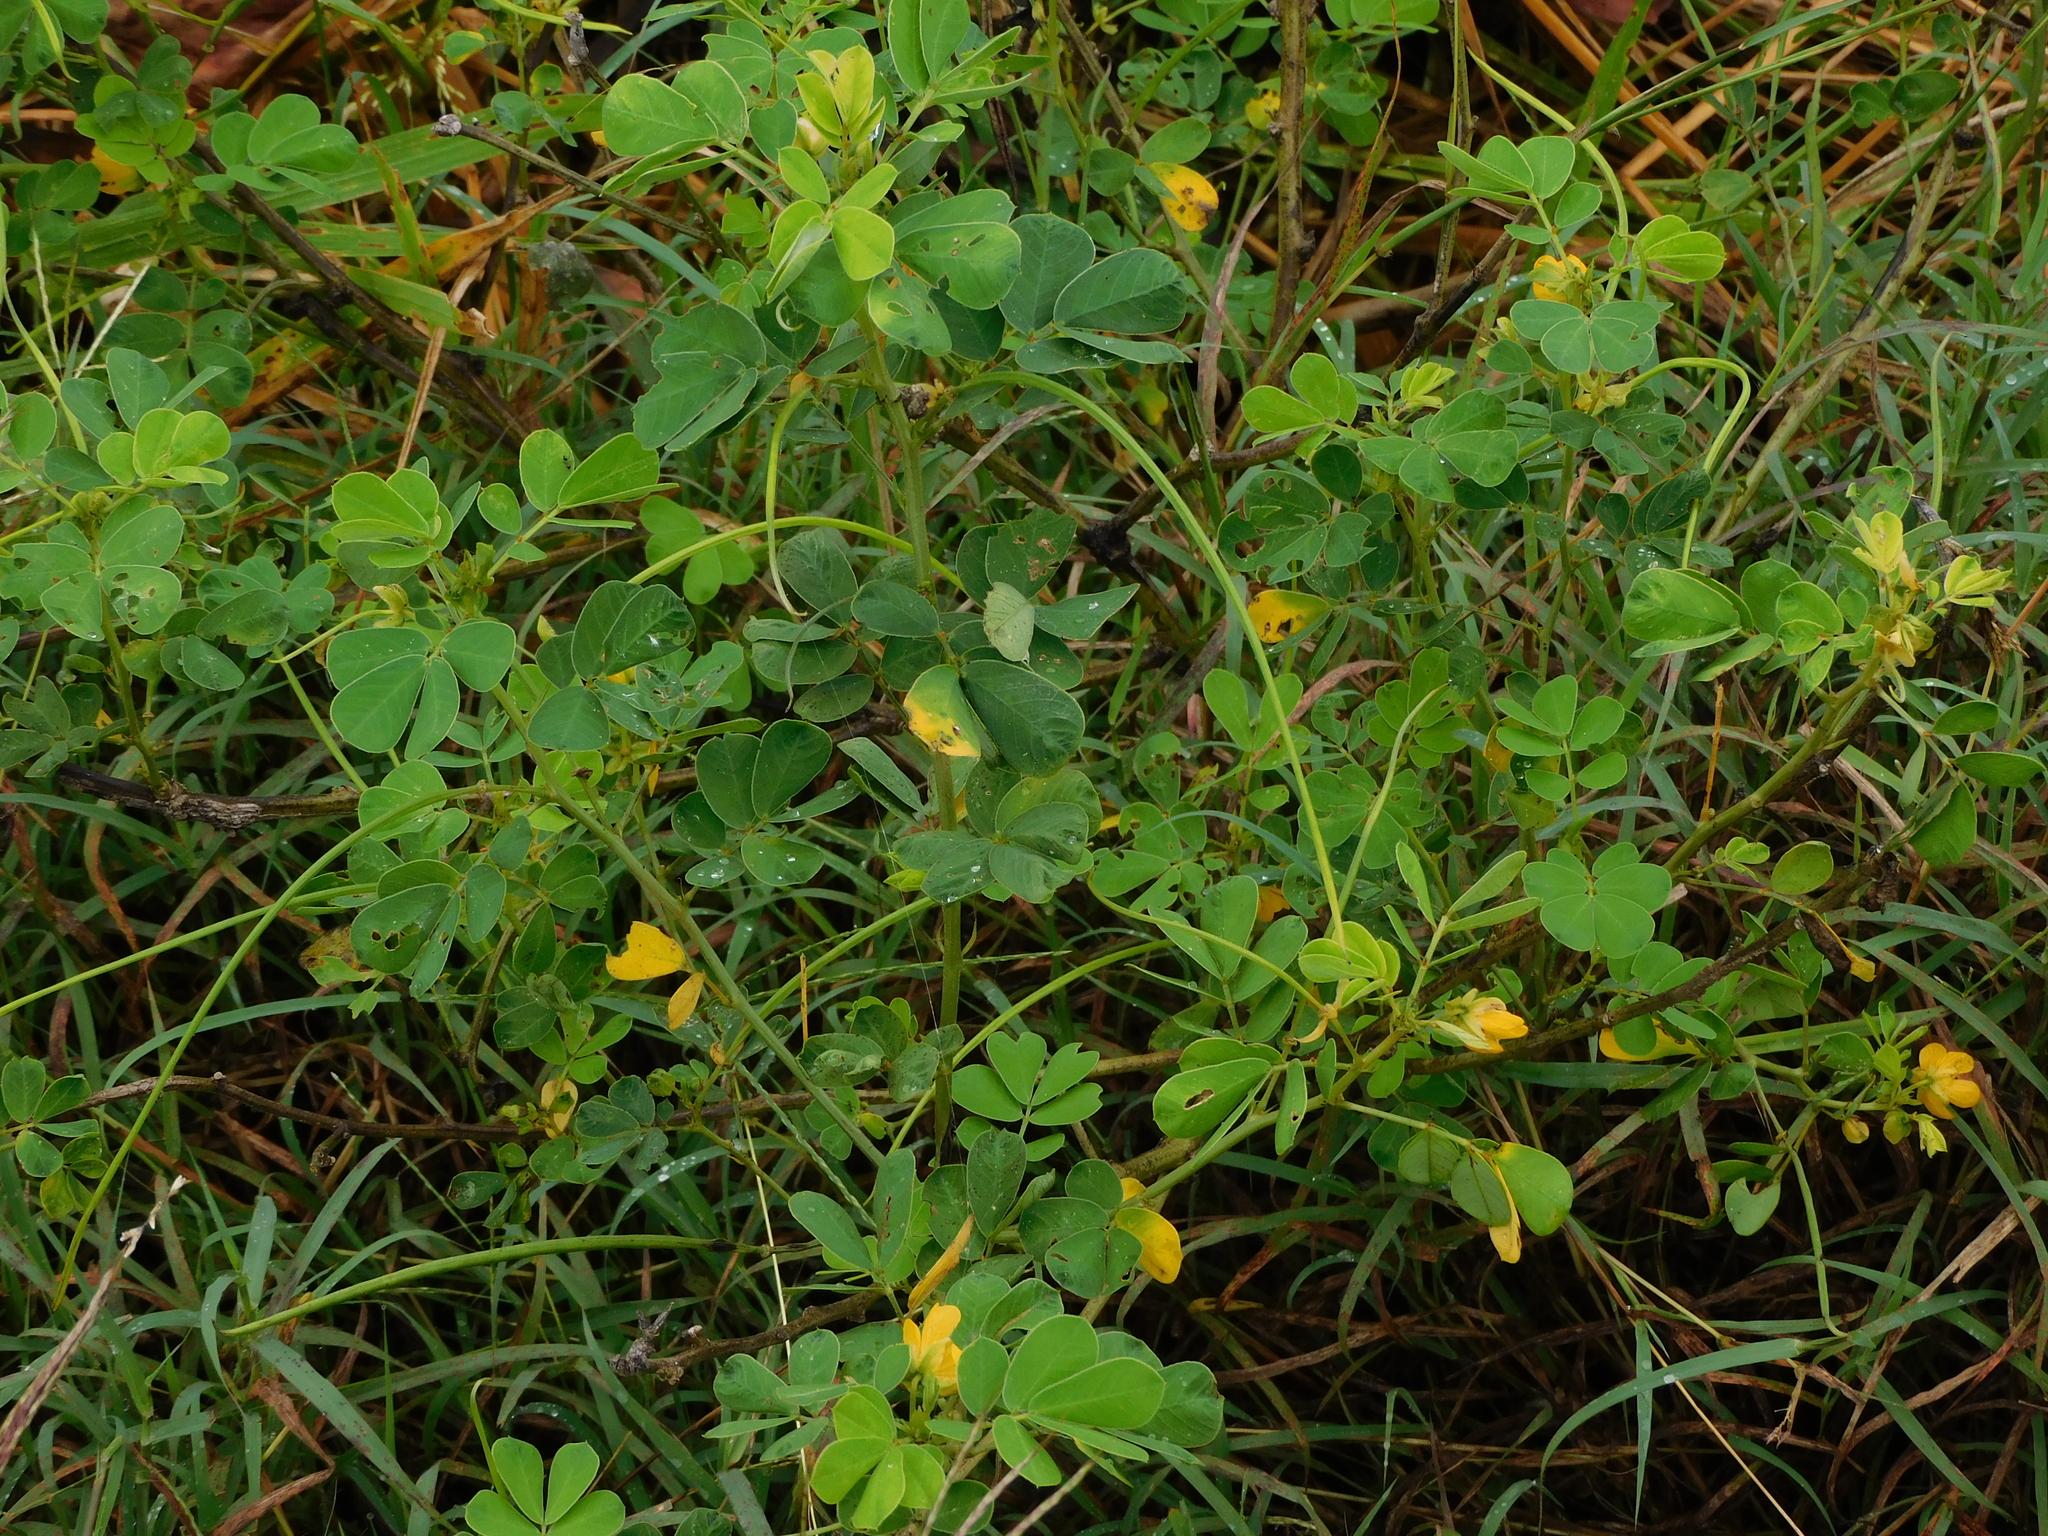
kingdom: Plantae
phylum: Tracheophyta
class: Magnoliopsida
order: Fabales
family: Fabaceae
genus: Senna
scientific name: Senna obtusifolia
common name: Java-bean
